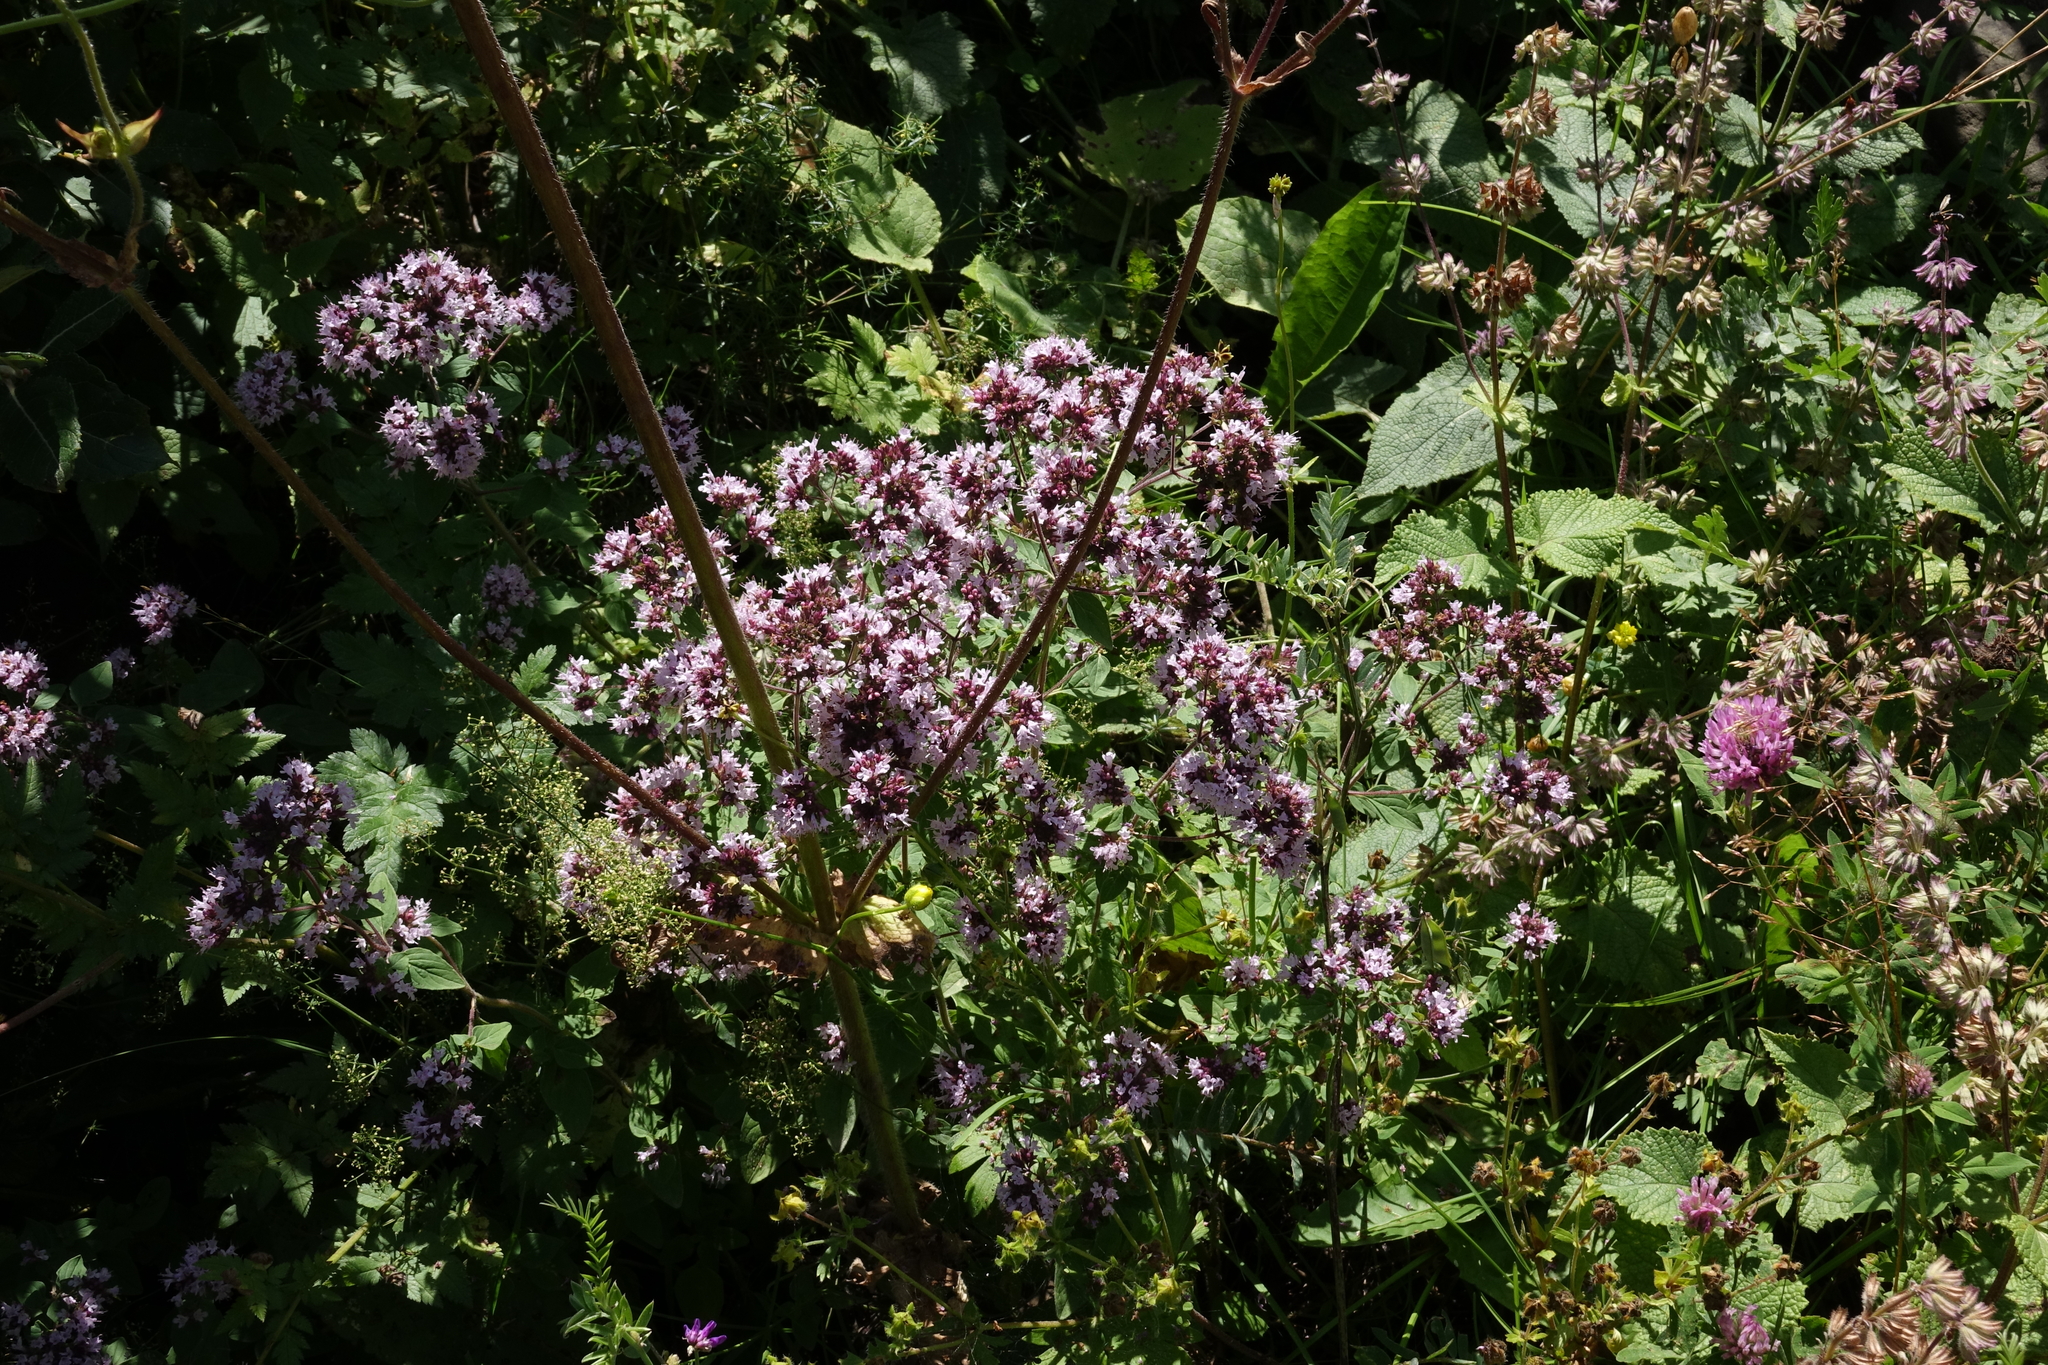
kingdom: Plantae
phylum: Tracheophyta
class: Magnoliopsida
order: Lamiales
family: Lamiaceae
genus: Origanum
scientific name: Origanum vulgare
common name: Wild marjoram
